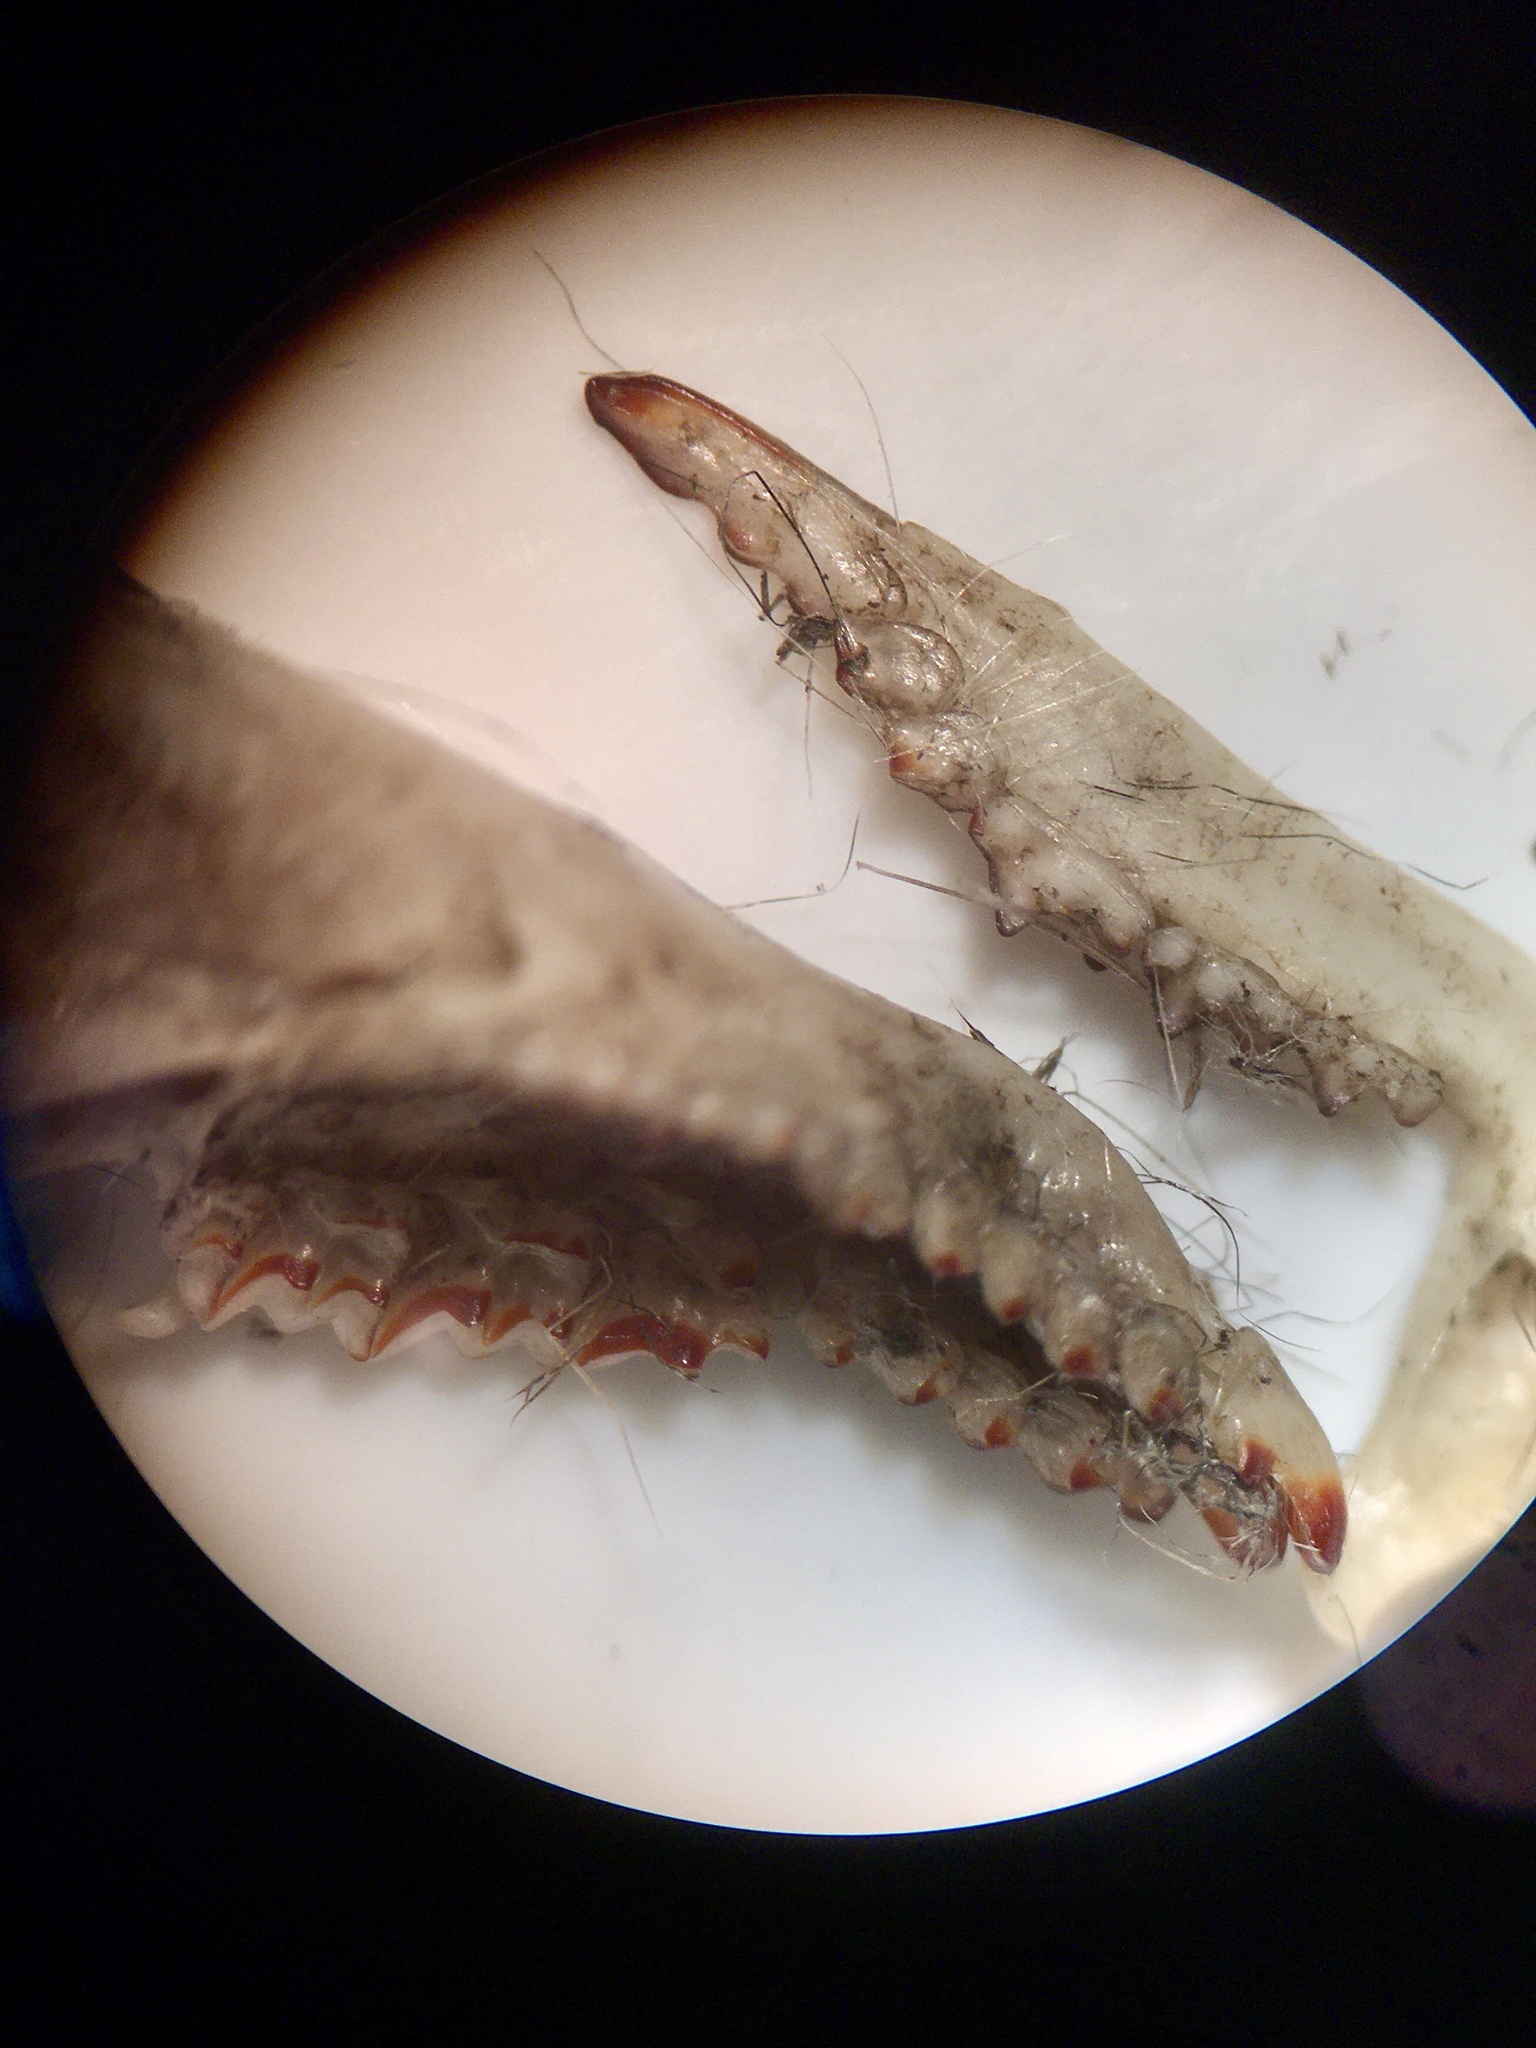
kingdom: Animalia
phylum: Chordata
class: Mammalia
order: Soricomorpha
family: Soricidae
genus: Sorex
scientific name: Sorex cinereus
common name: Cinereus shrew
